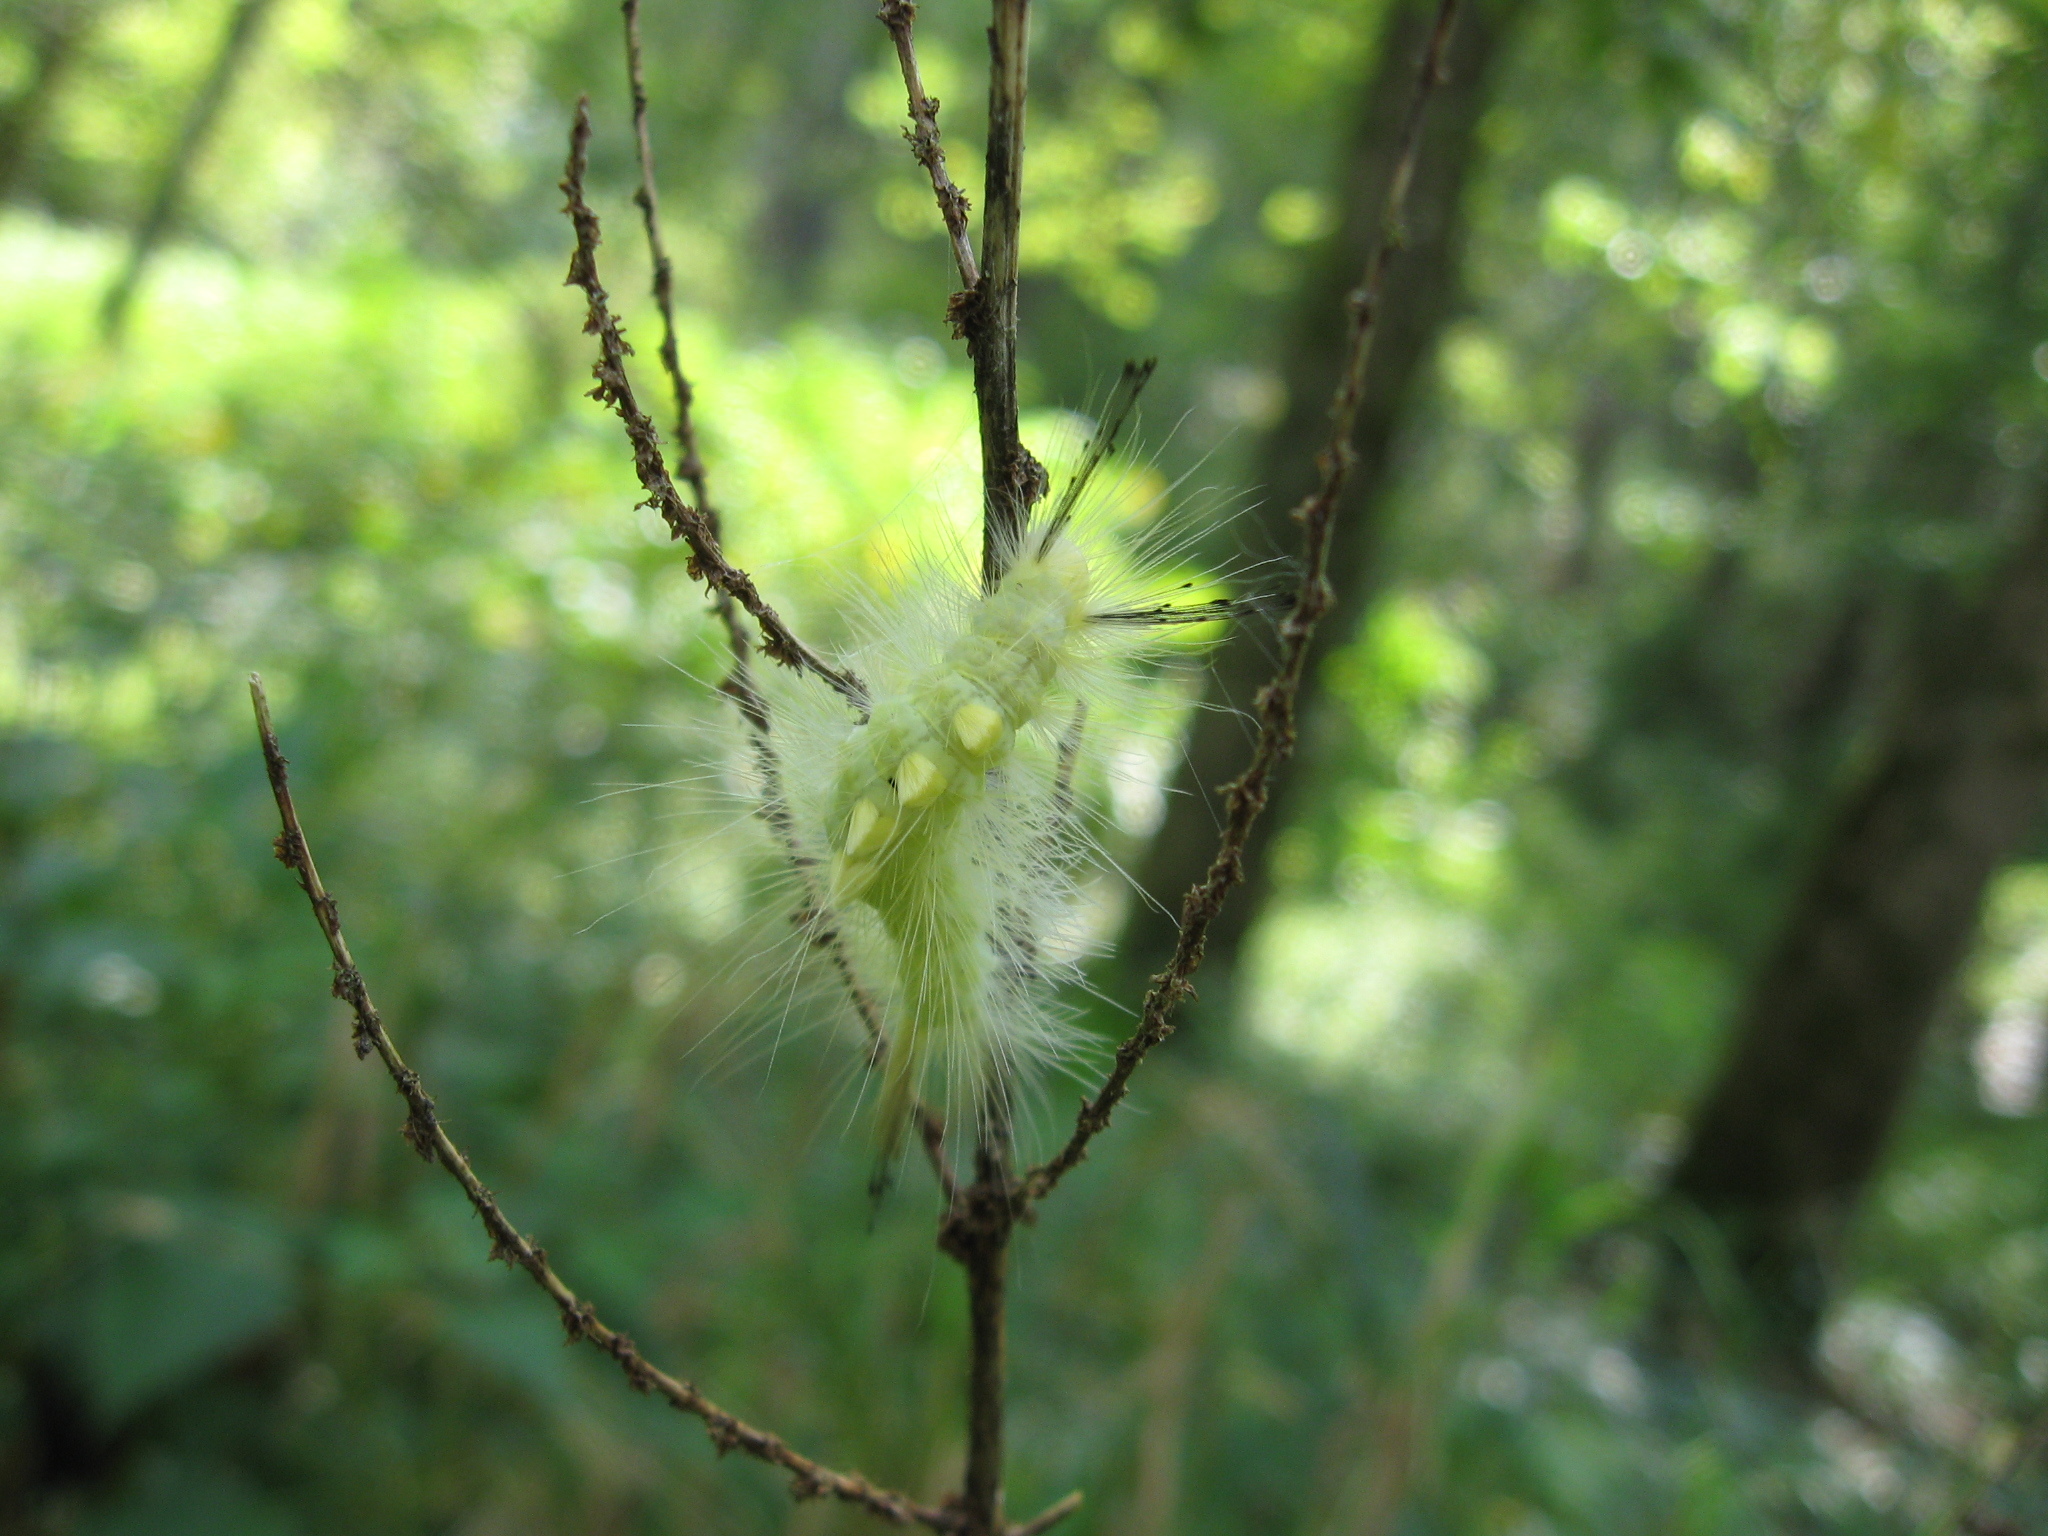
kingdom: Animalia
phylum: Arthropoda
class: Insecta
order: Lepidoptera
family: Erebidae
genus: Orgyia
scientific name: Orgyia definita
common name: Definite tussock moth
